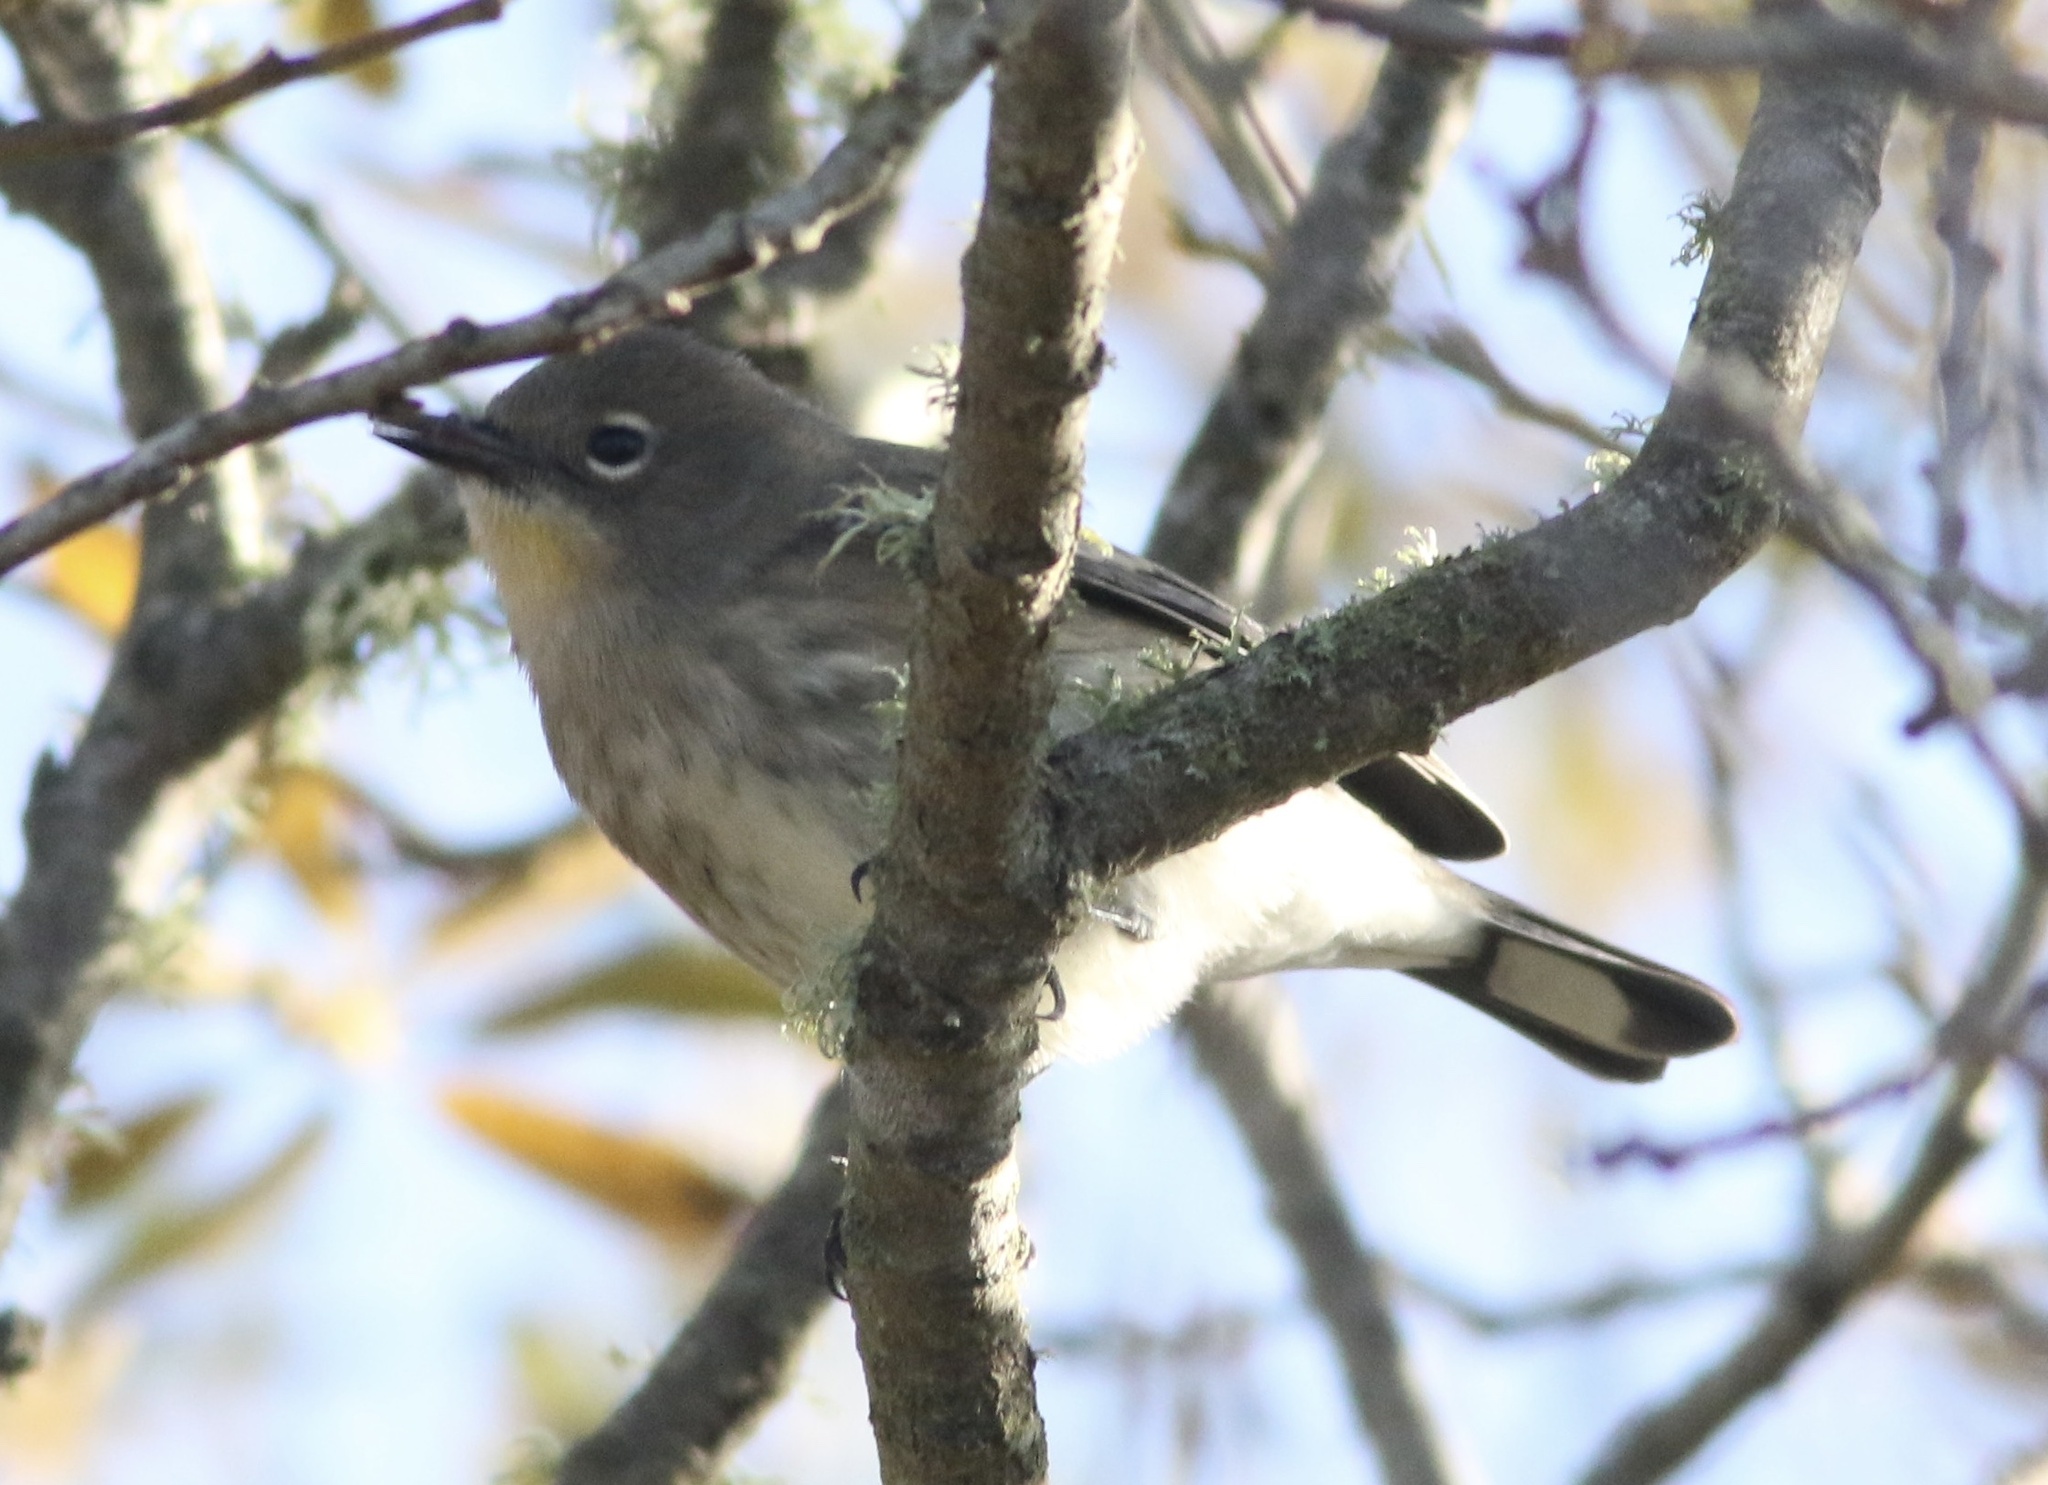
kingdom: Animalia
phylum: Chordata
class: Aves
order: Passeriformes
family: Parulidae
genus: Setophaga
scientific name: Setophaga coronata
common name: Myrtle warbler
